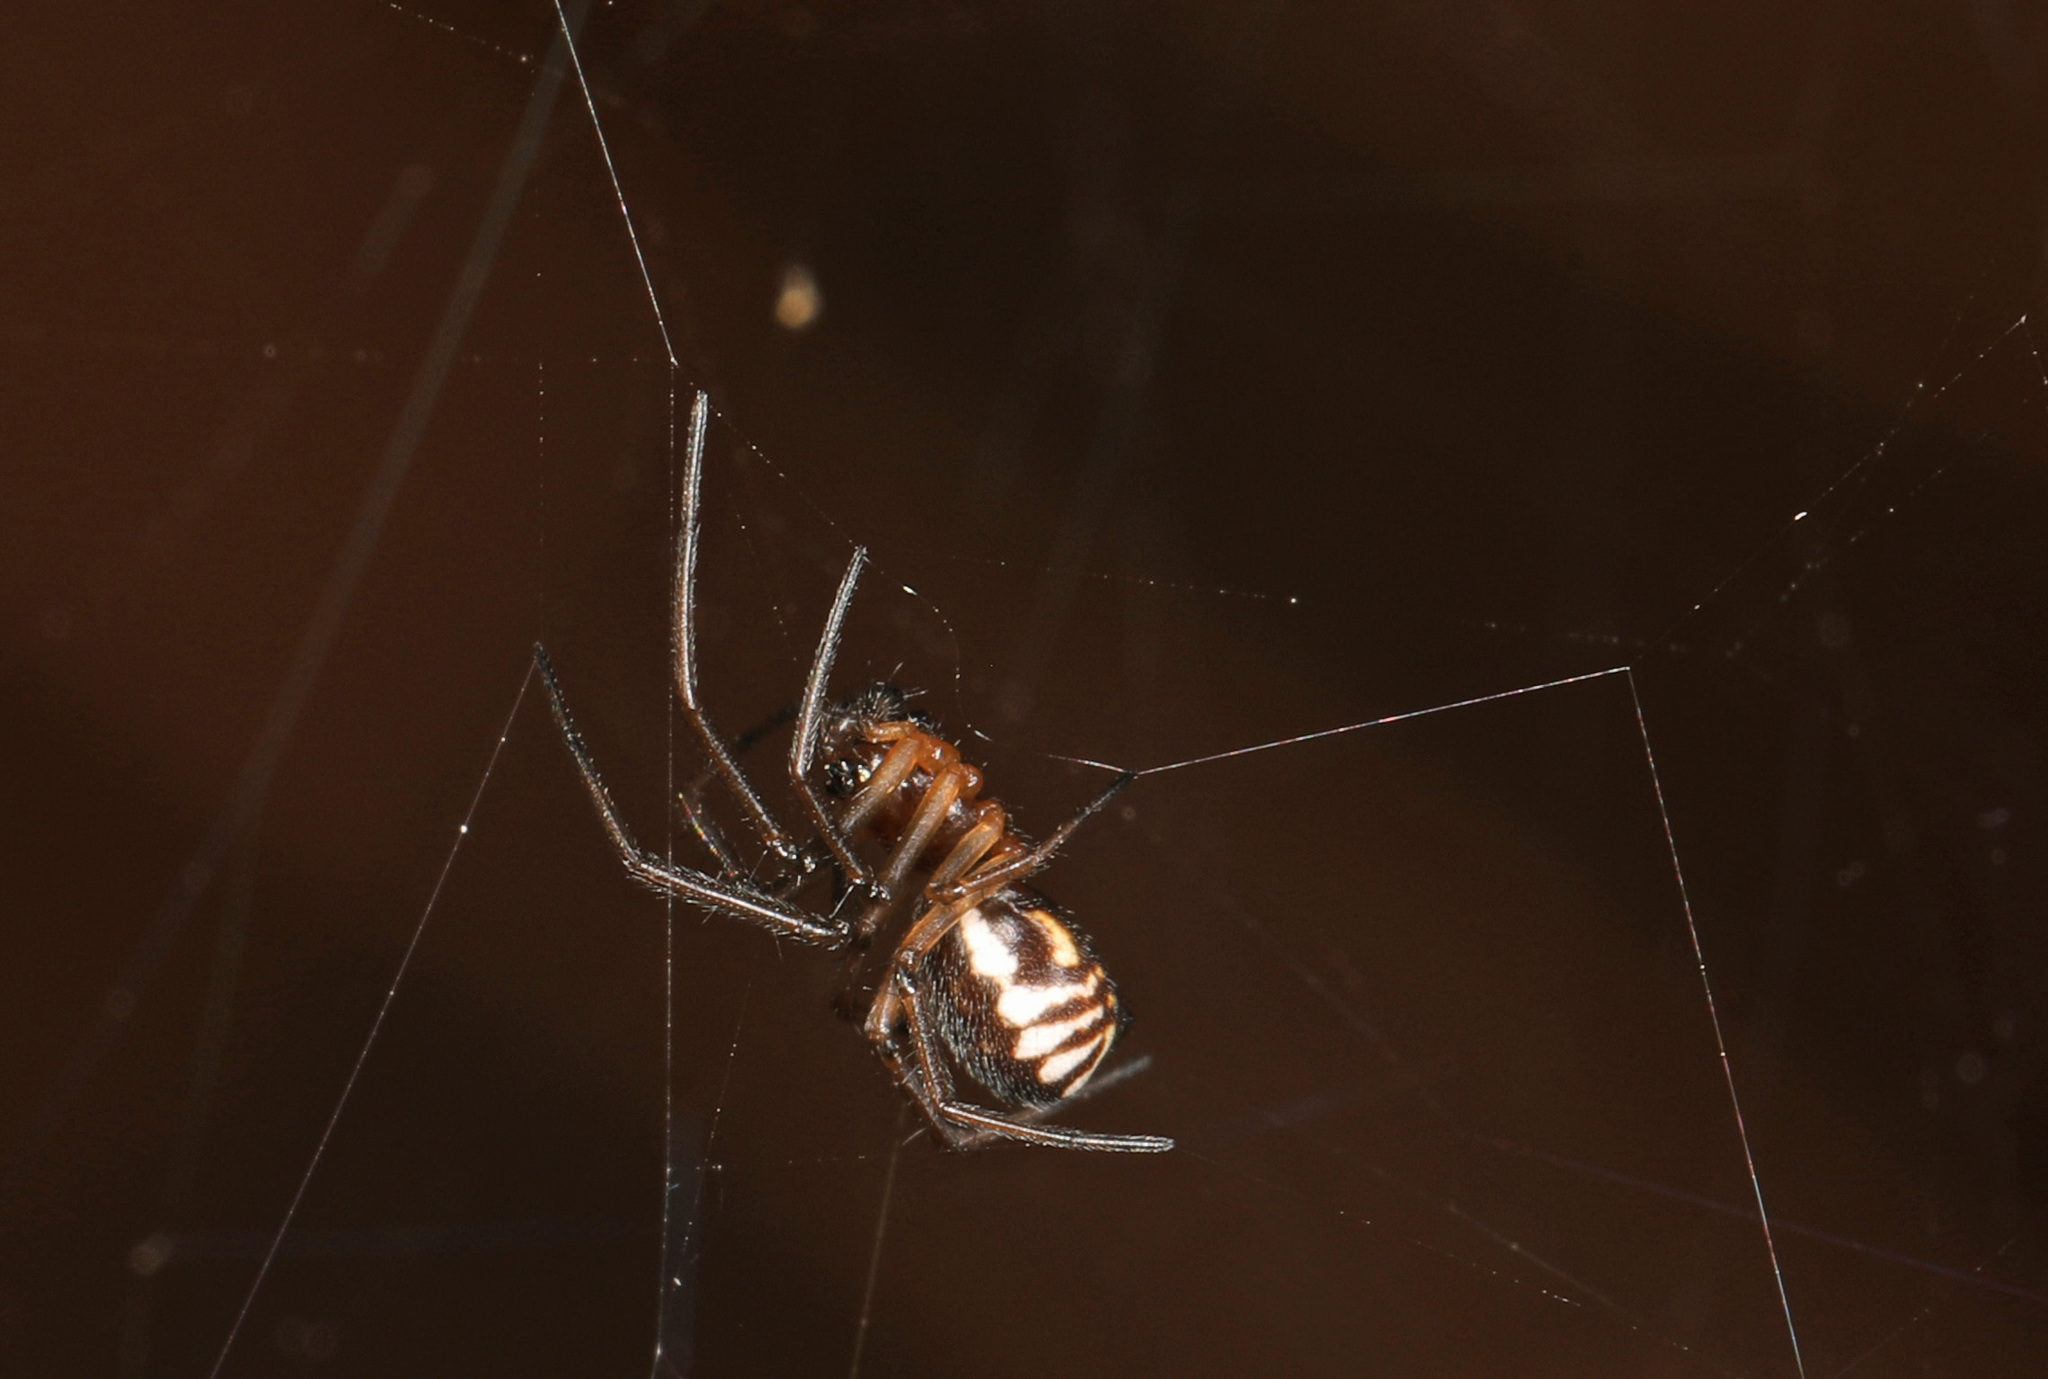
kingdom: Animalia
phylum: Arthropoda
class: Arachnida
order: Araneae
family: Linyphiidae
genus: Frontinella
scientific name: Frontinella pyramitela
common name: Bowl-and-doily spider
